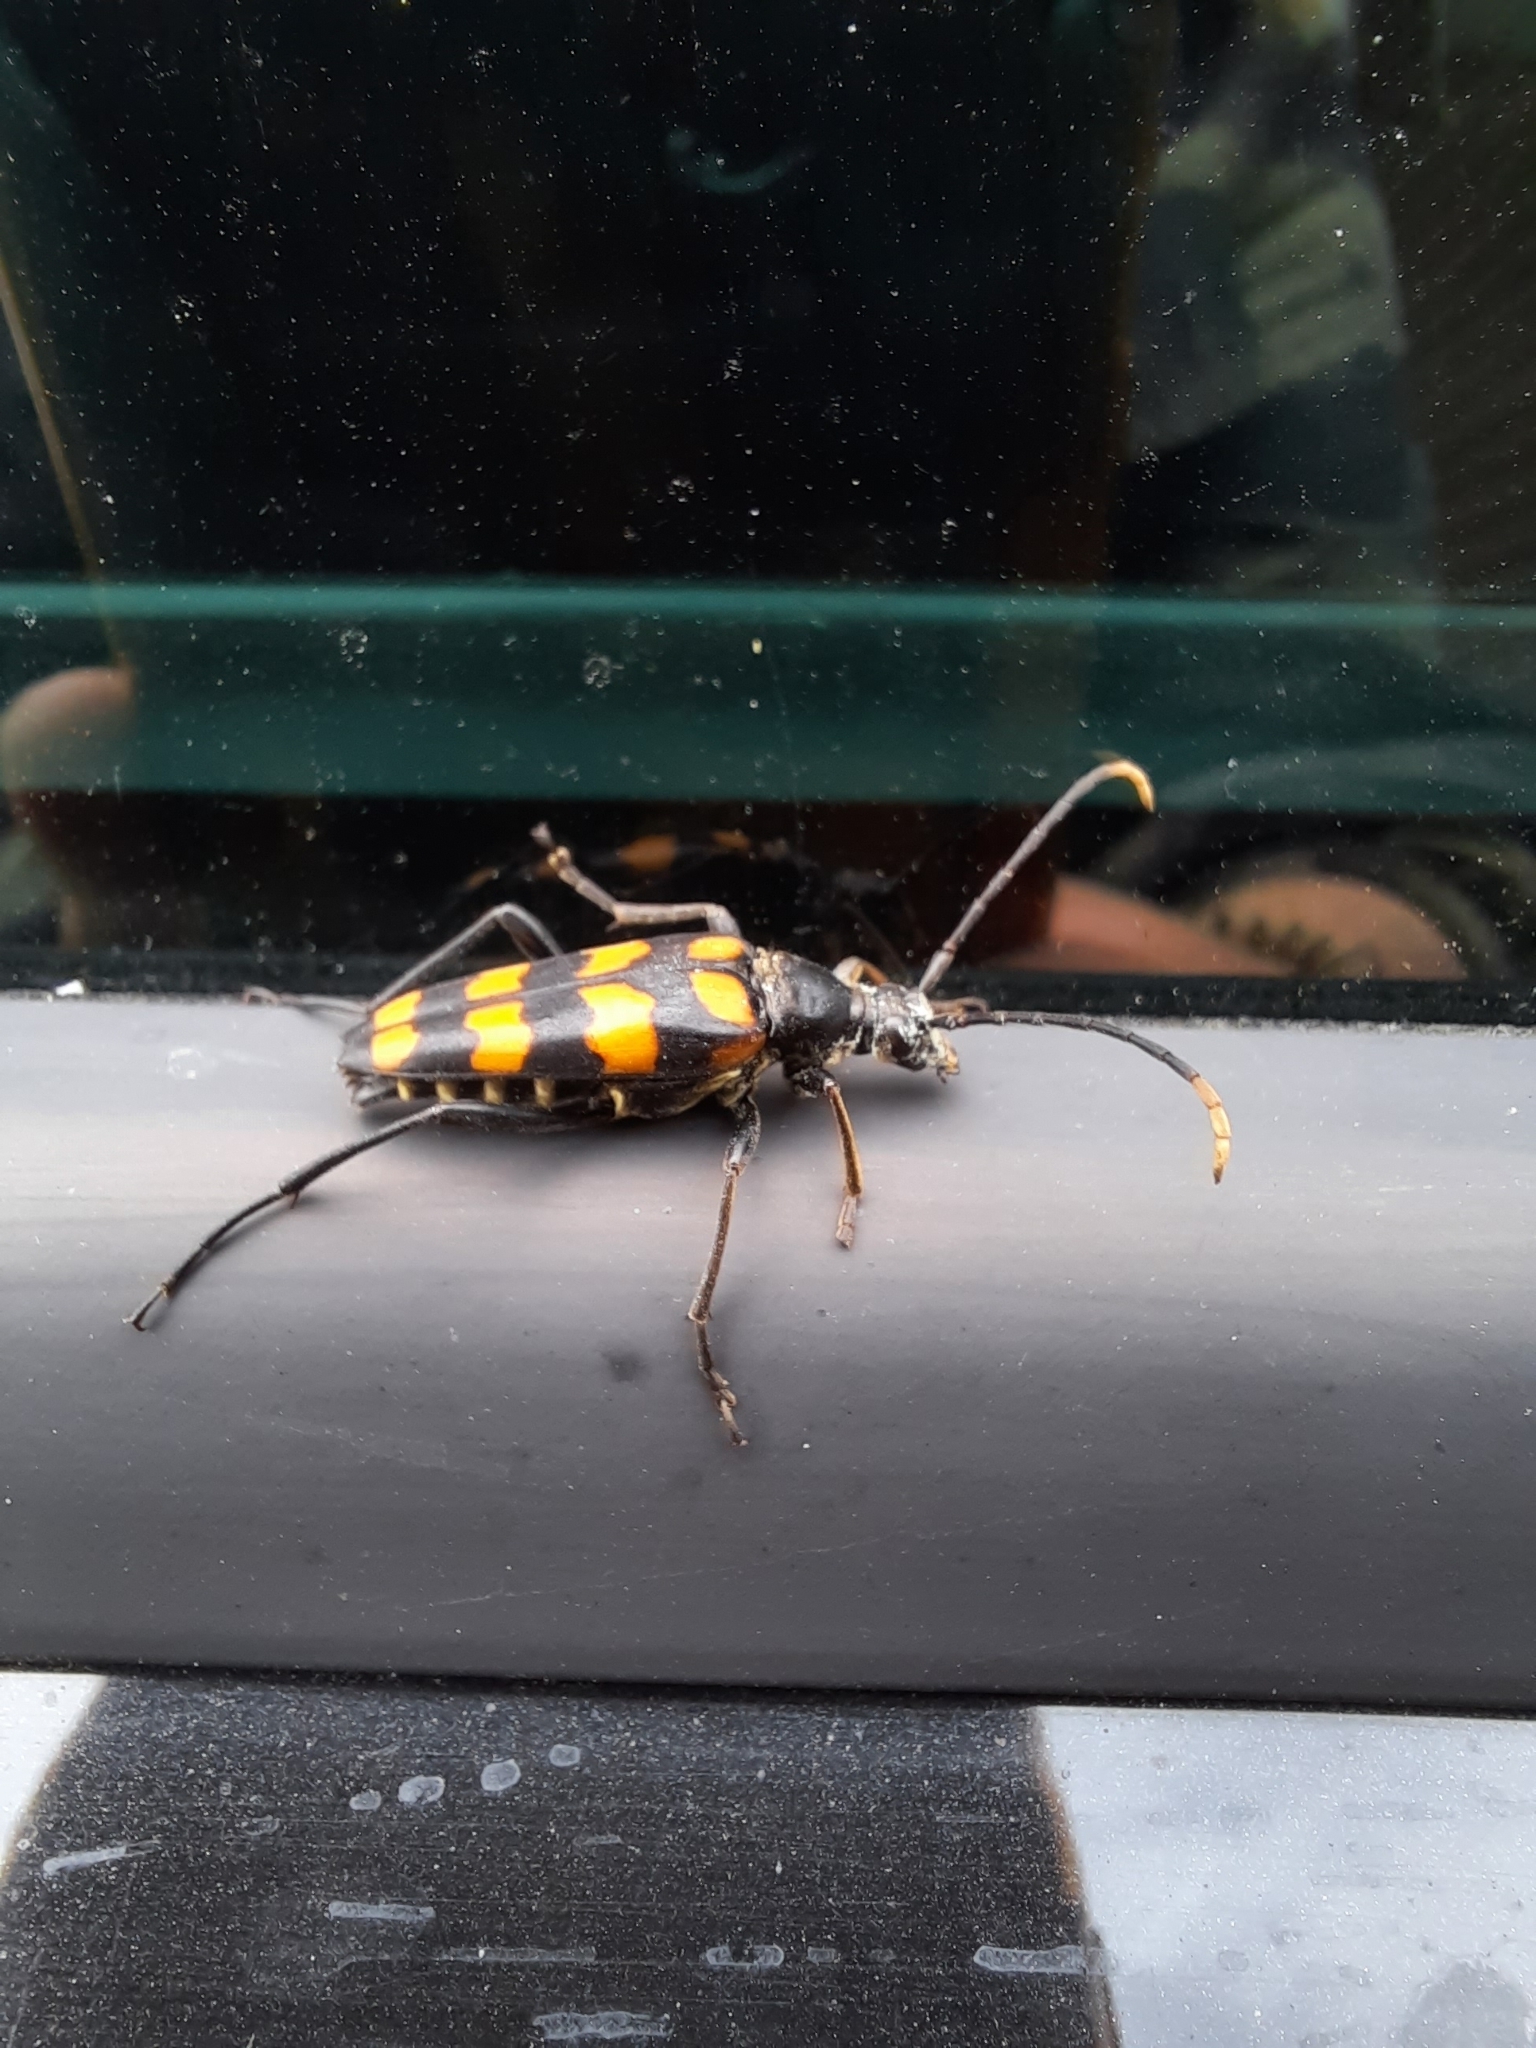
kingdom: Animalia
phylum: Arthropoda
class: Insecta
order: Coleoptera
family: Cerambycidae
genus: Leptura
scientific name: Leptura quadrifasciata
